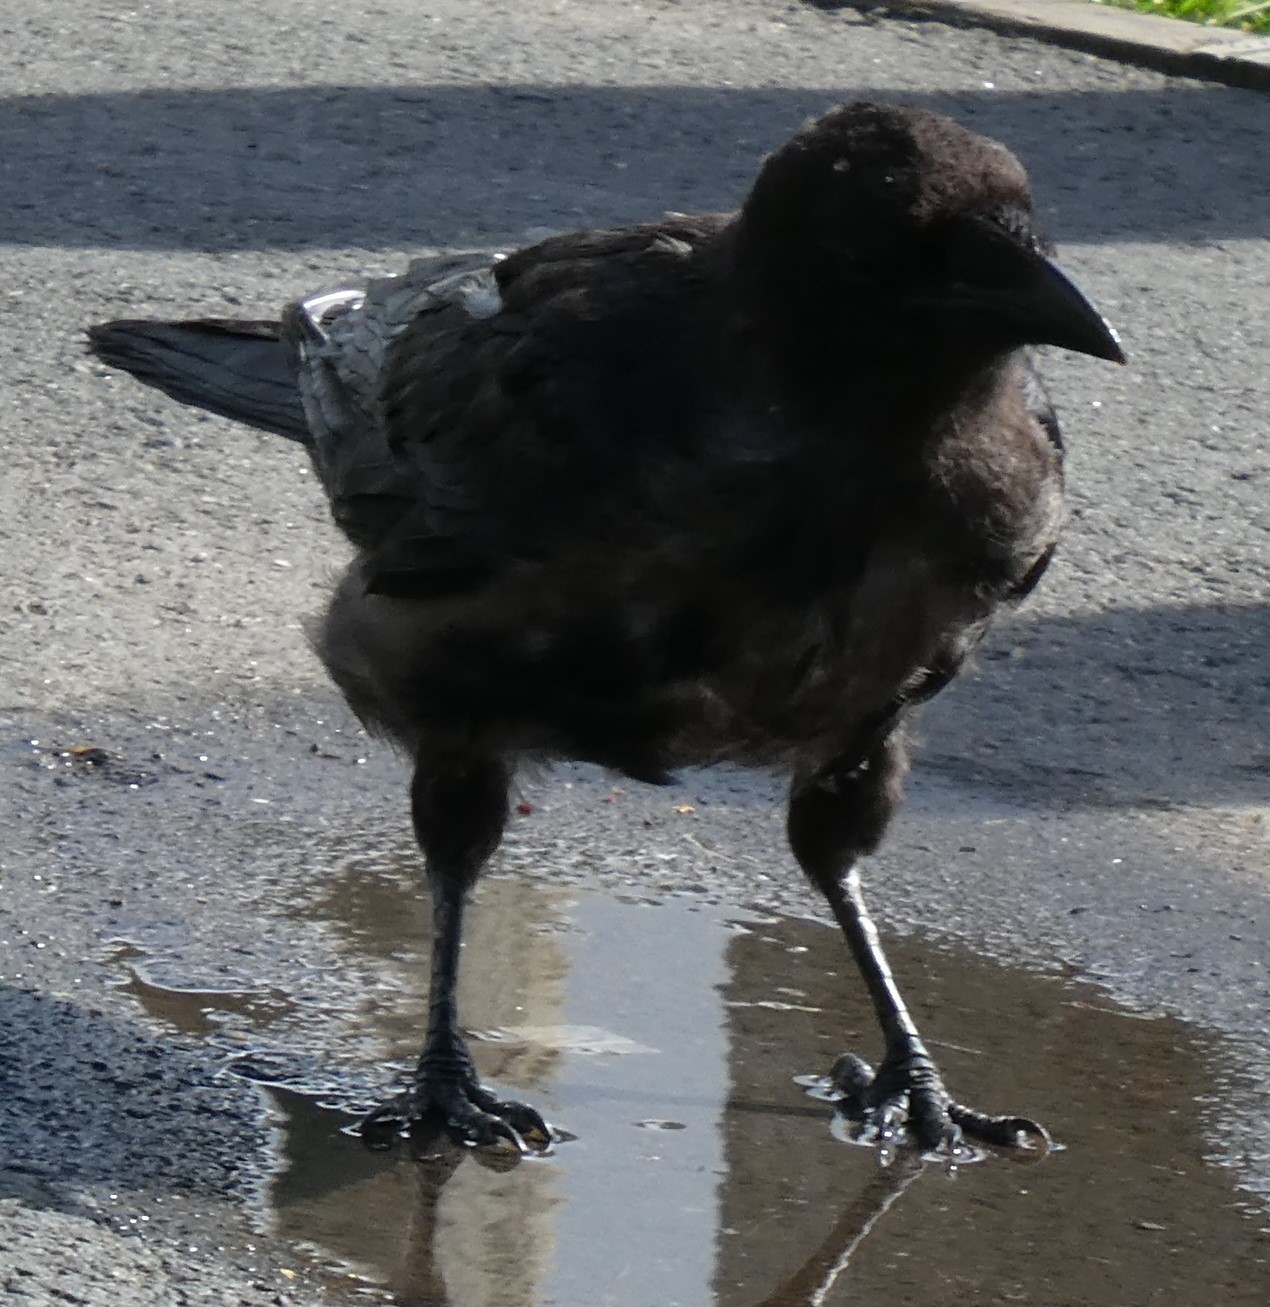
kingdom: Animalia
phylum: Chordata
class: Aves
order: Passeriformes
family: Corvidae
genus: Corvus
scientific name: Corvus corone
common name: Carrion crow
